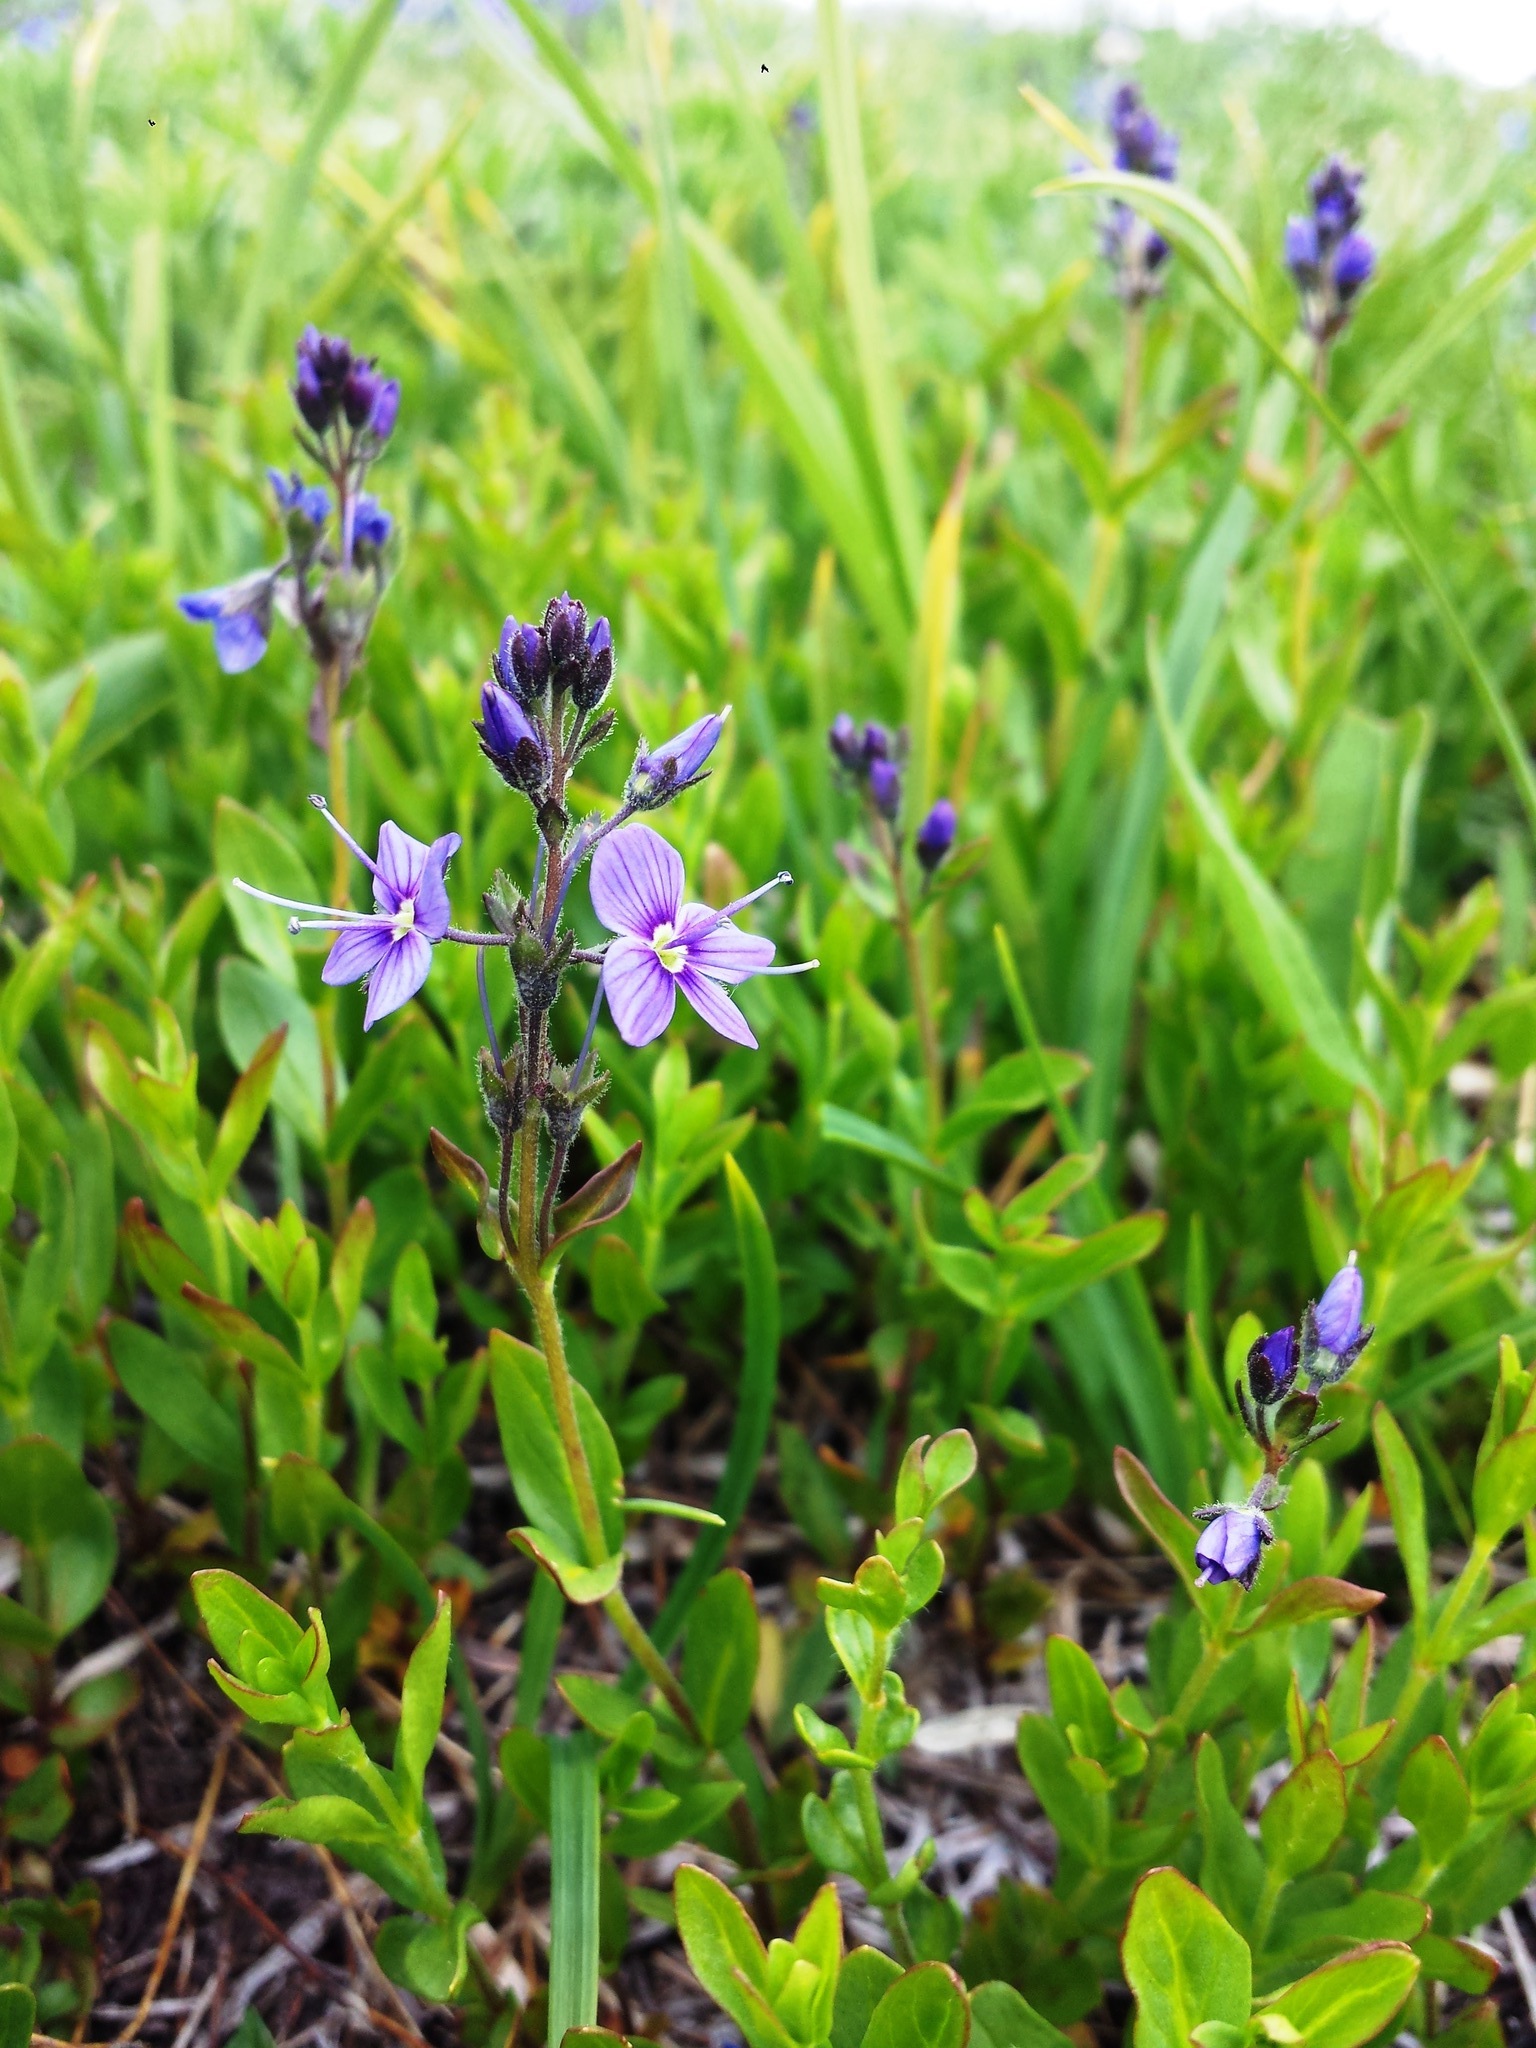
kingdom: Plantae
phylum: Tracheophyta
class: Magnoliopsida
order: Lamiales
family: Plantaginaceae
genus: Veronica
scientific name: Veronica cusickii
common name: Cusick's speedwell
